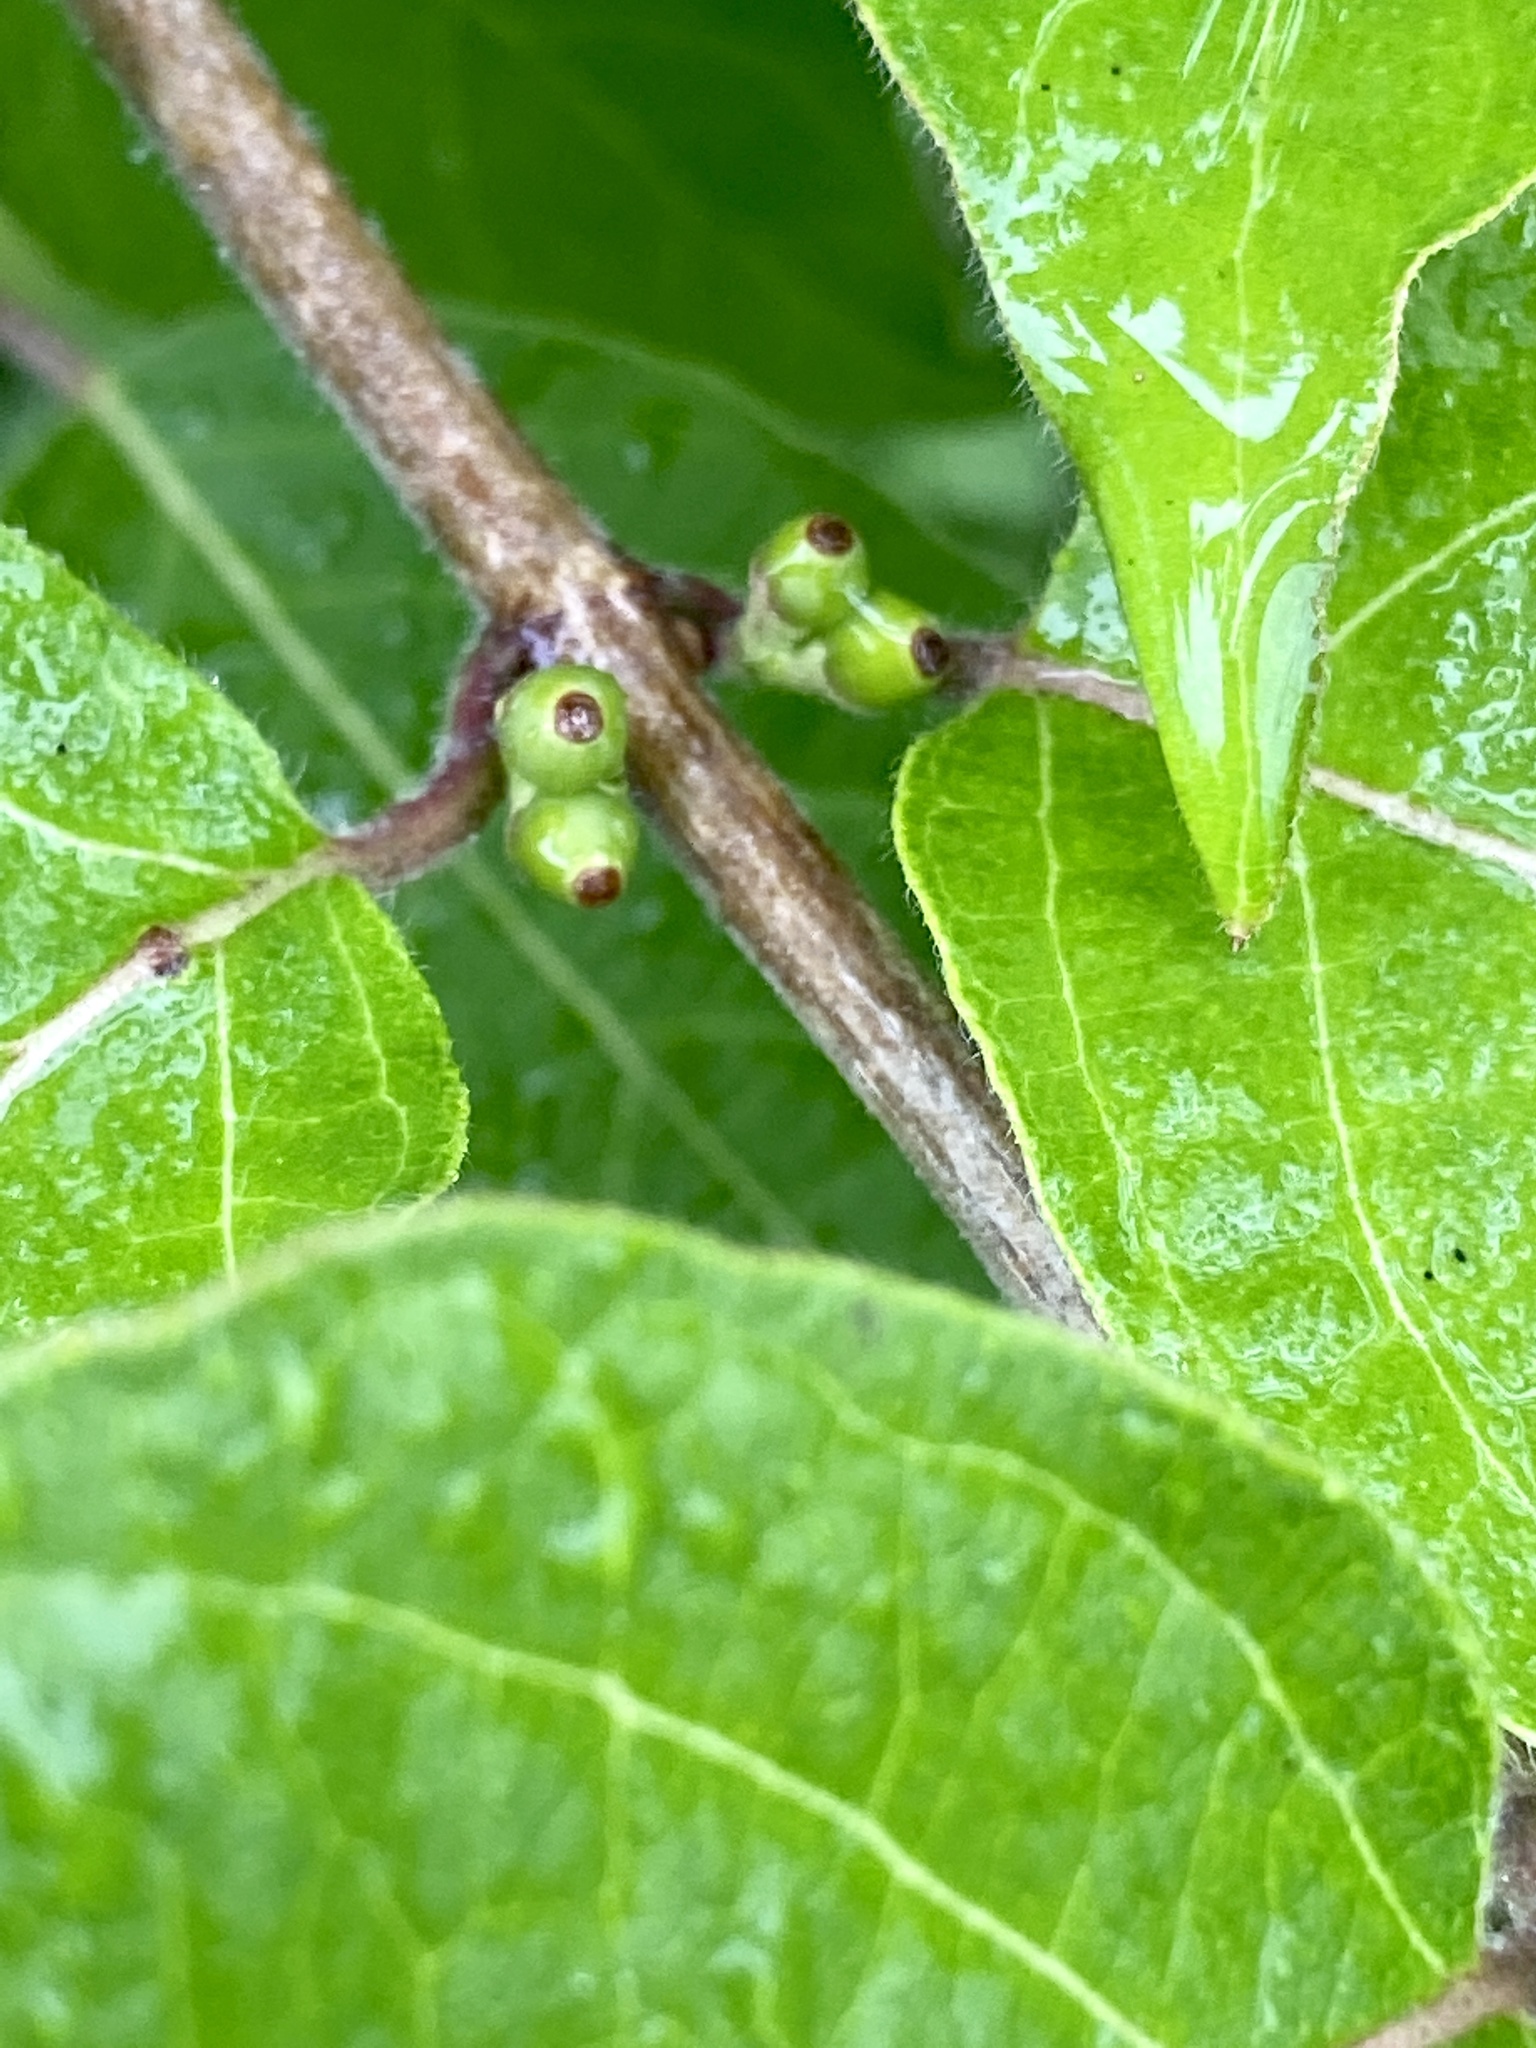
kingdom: Plantae
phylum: Tracheophyta
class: Magnoliopsida
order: Dipsacales
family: Caprifoliaceae
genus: Lonicera
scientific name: Lonicera maackii
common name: Amur honeysuckle
